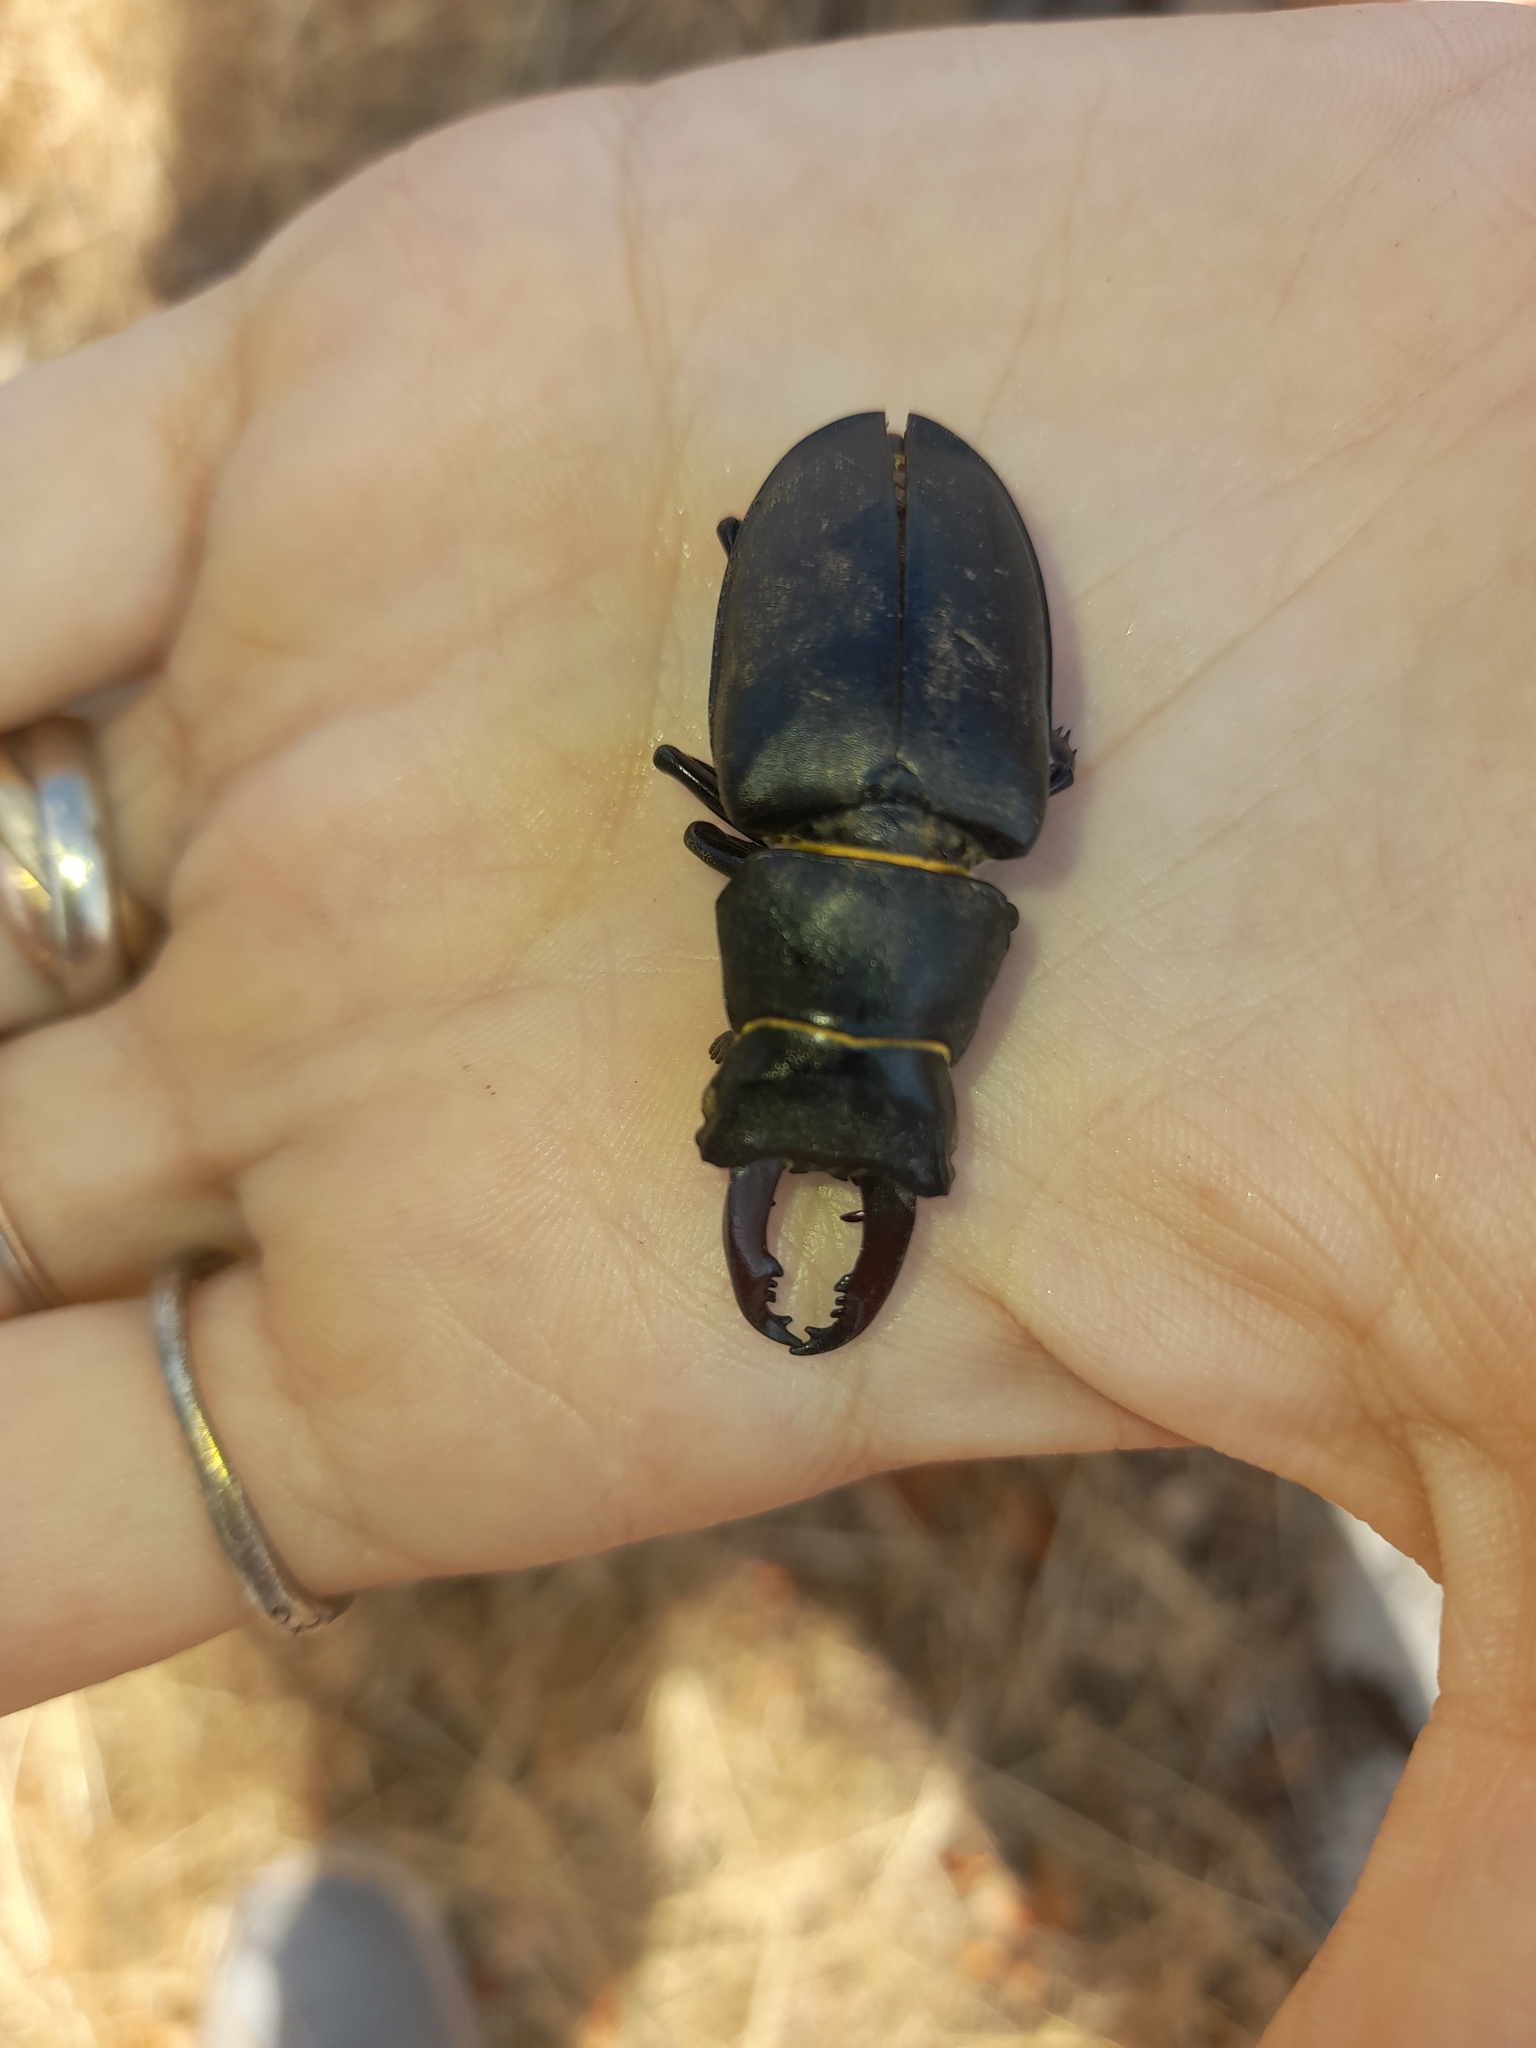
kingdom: Animalia
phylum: Arthropoda
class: Insecta
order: Coleoptera
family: Lucanidae
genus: Lucanus
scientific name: Lucanus cervus
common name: Stag beetle
